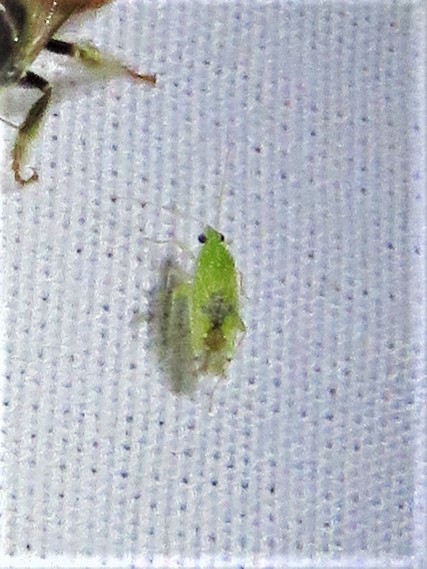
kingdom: Animalia
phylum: Arthropoda
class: Insecta
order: Hemiptera
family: Miridae
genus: Keltonia
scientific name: Keltonia tuckeri
